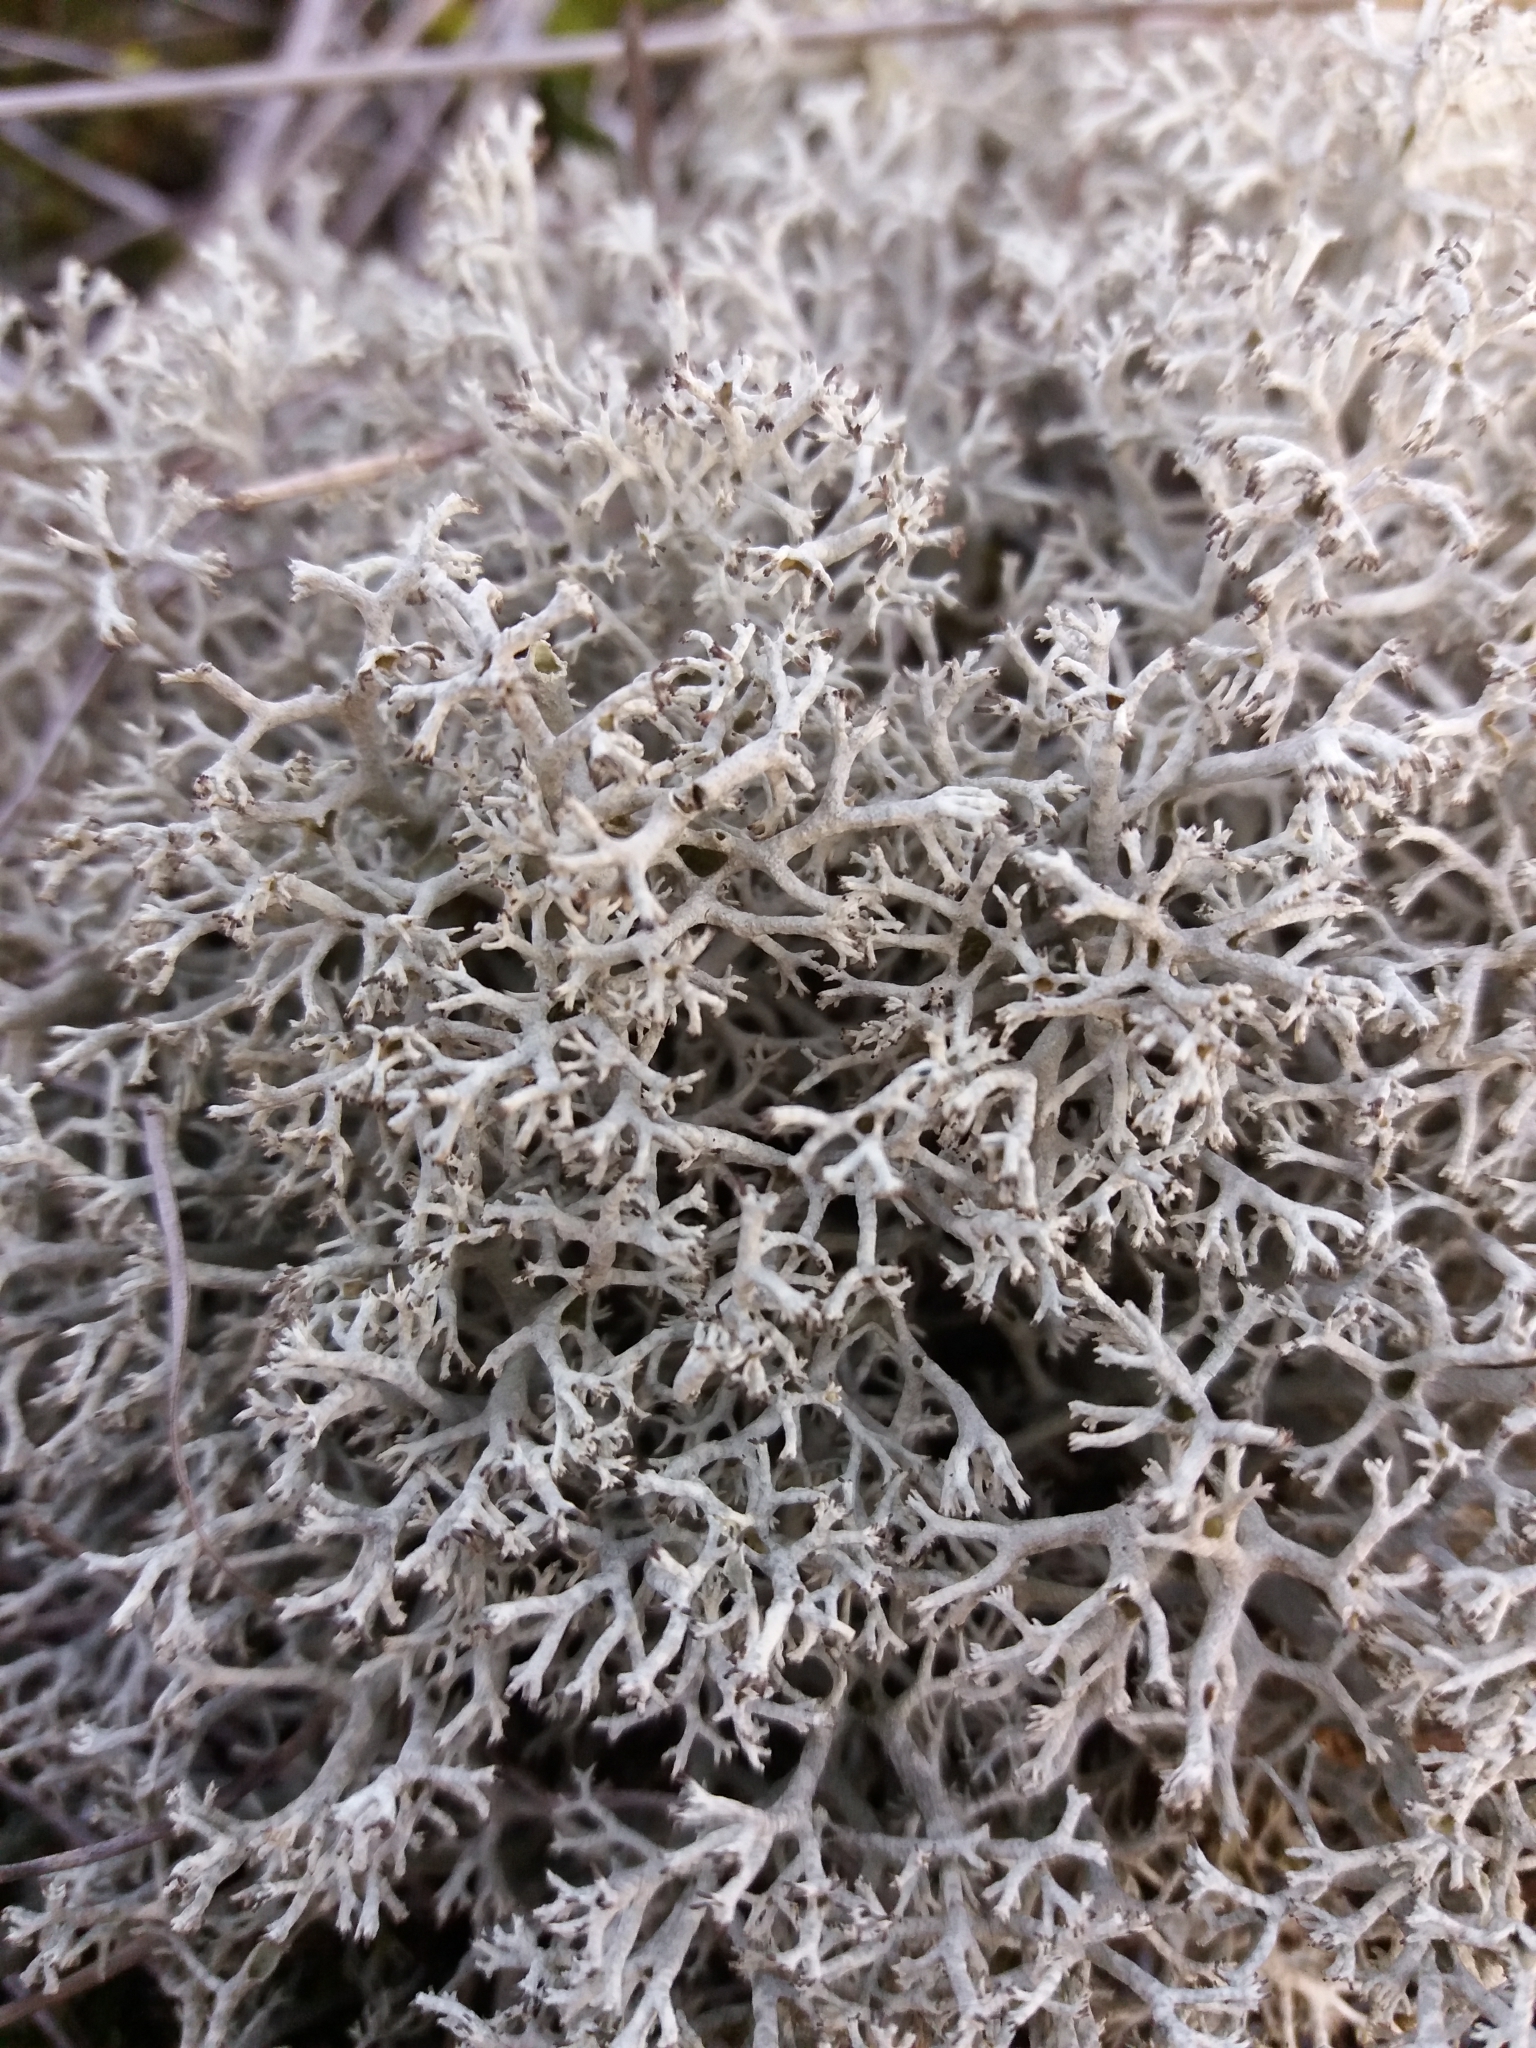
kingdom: Fungi
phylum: Ascomycota
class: Lecanoromycetes
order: Lecanorales
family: Cladoniaceae
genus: Cladonia
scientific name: Cladonia rangiferina
